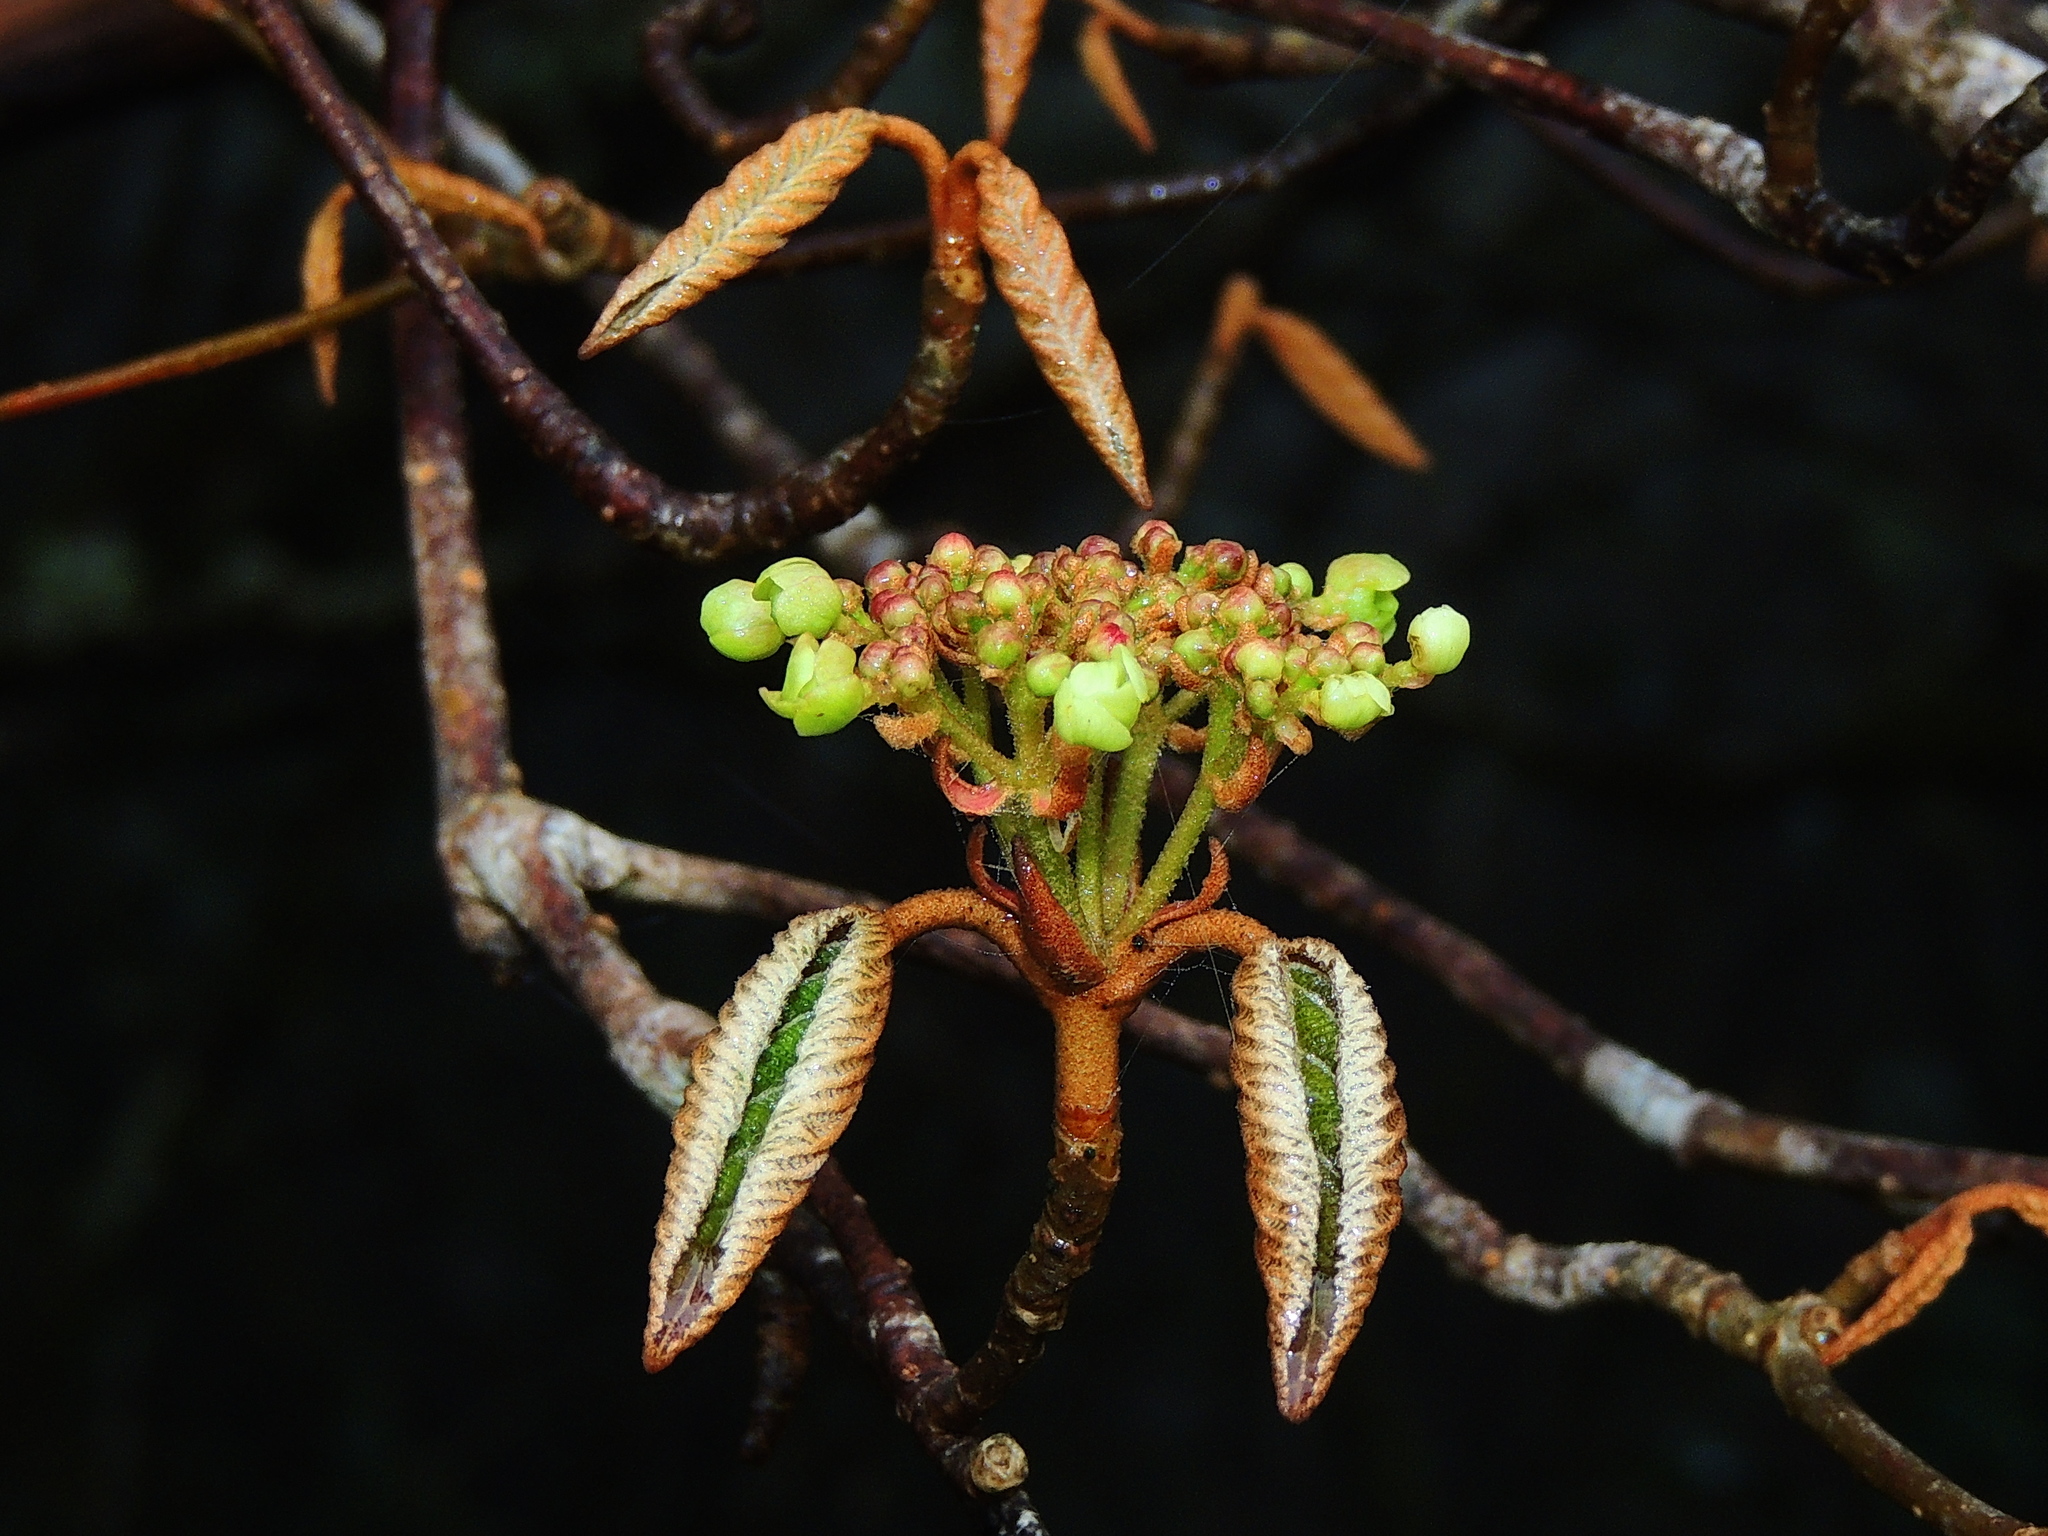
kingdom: Plantae
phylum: Tracheophyta
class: Magnoliopsida
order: Dipsacales
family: Viburnaceae
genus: Viburnum
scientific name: Viburnum furcatum
